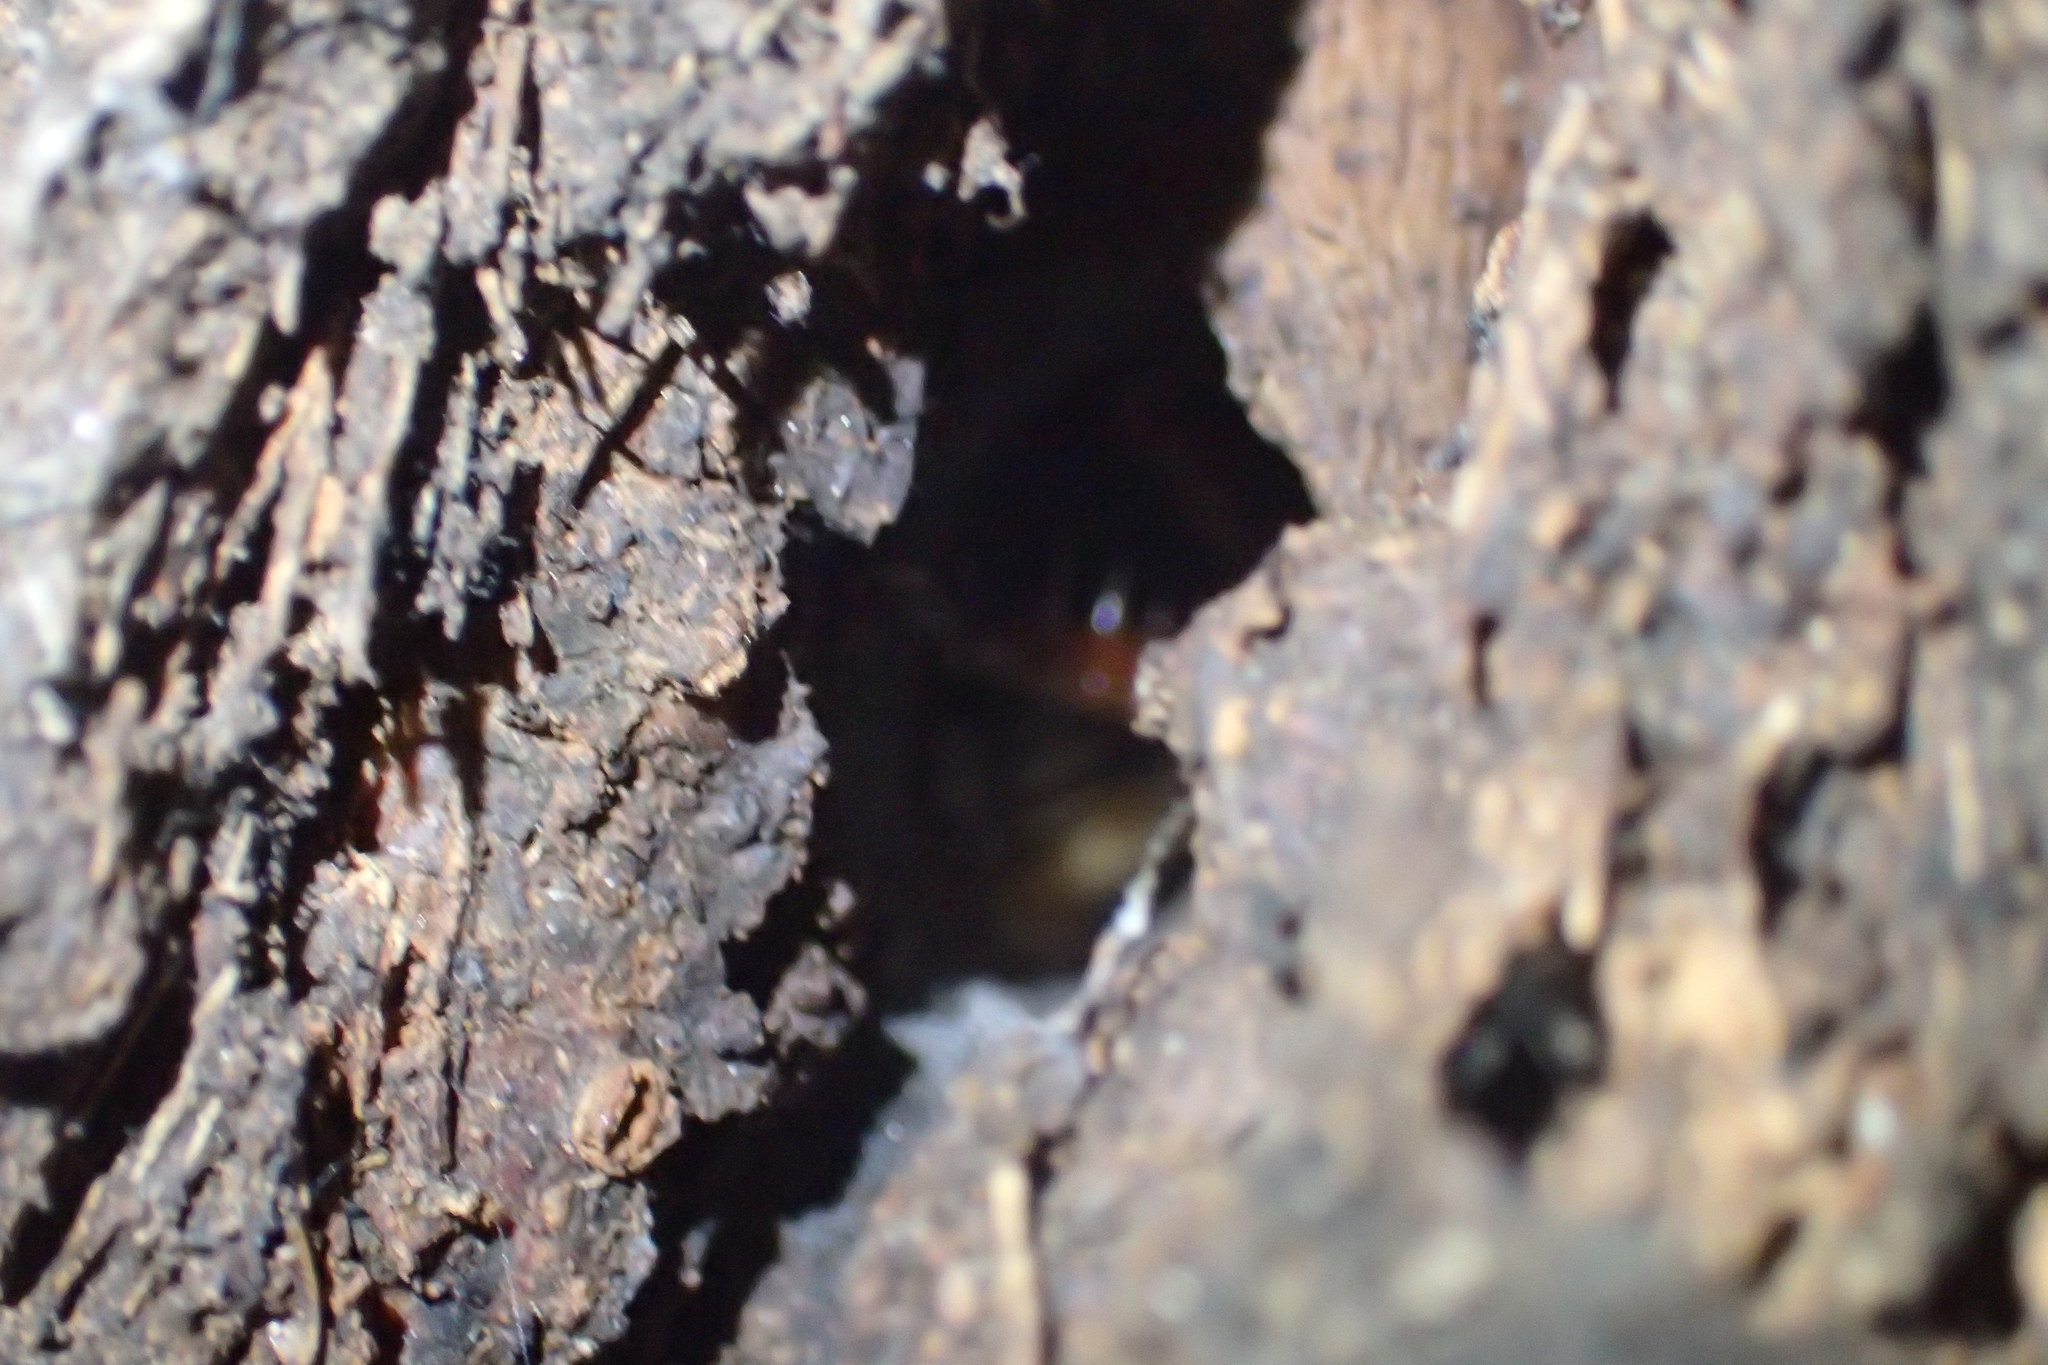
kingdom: Animalia
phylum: Arthropoda
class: Insecta
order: Orthoptera
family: Anostostomatidae
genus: Hemideina
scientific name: Hemideina crassidens
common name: Wellington tree weta
